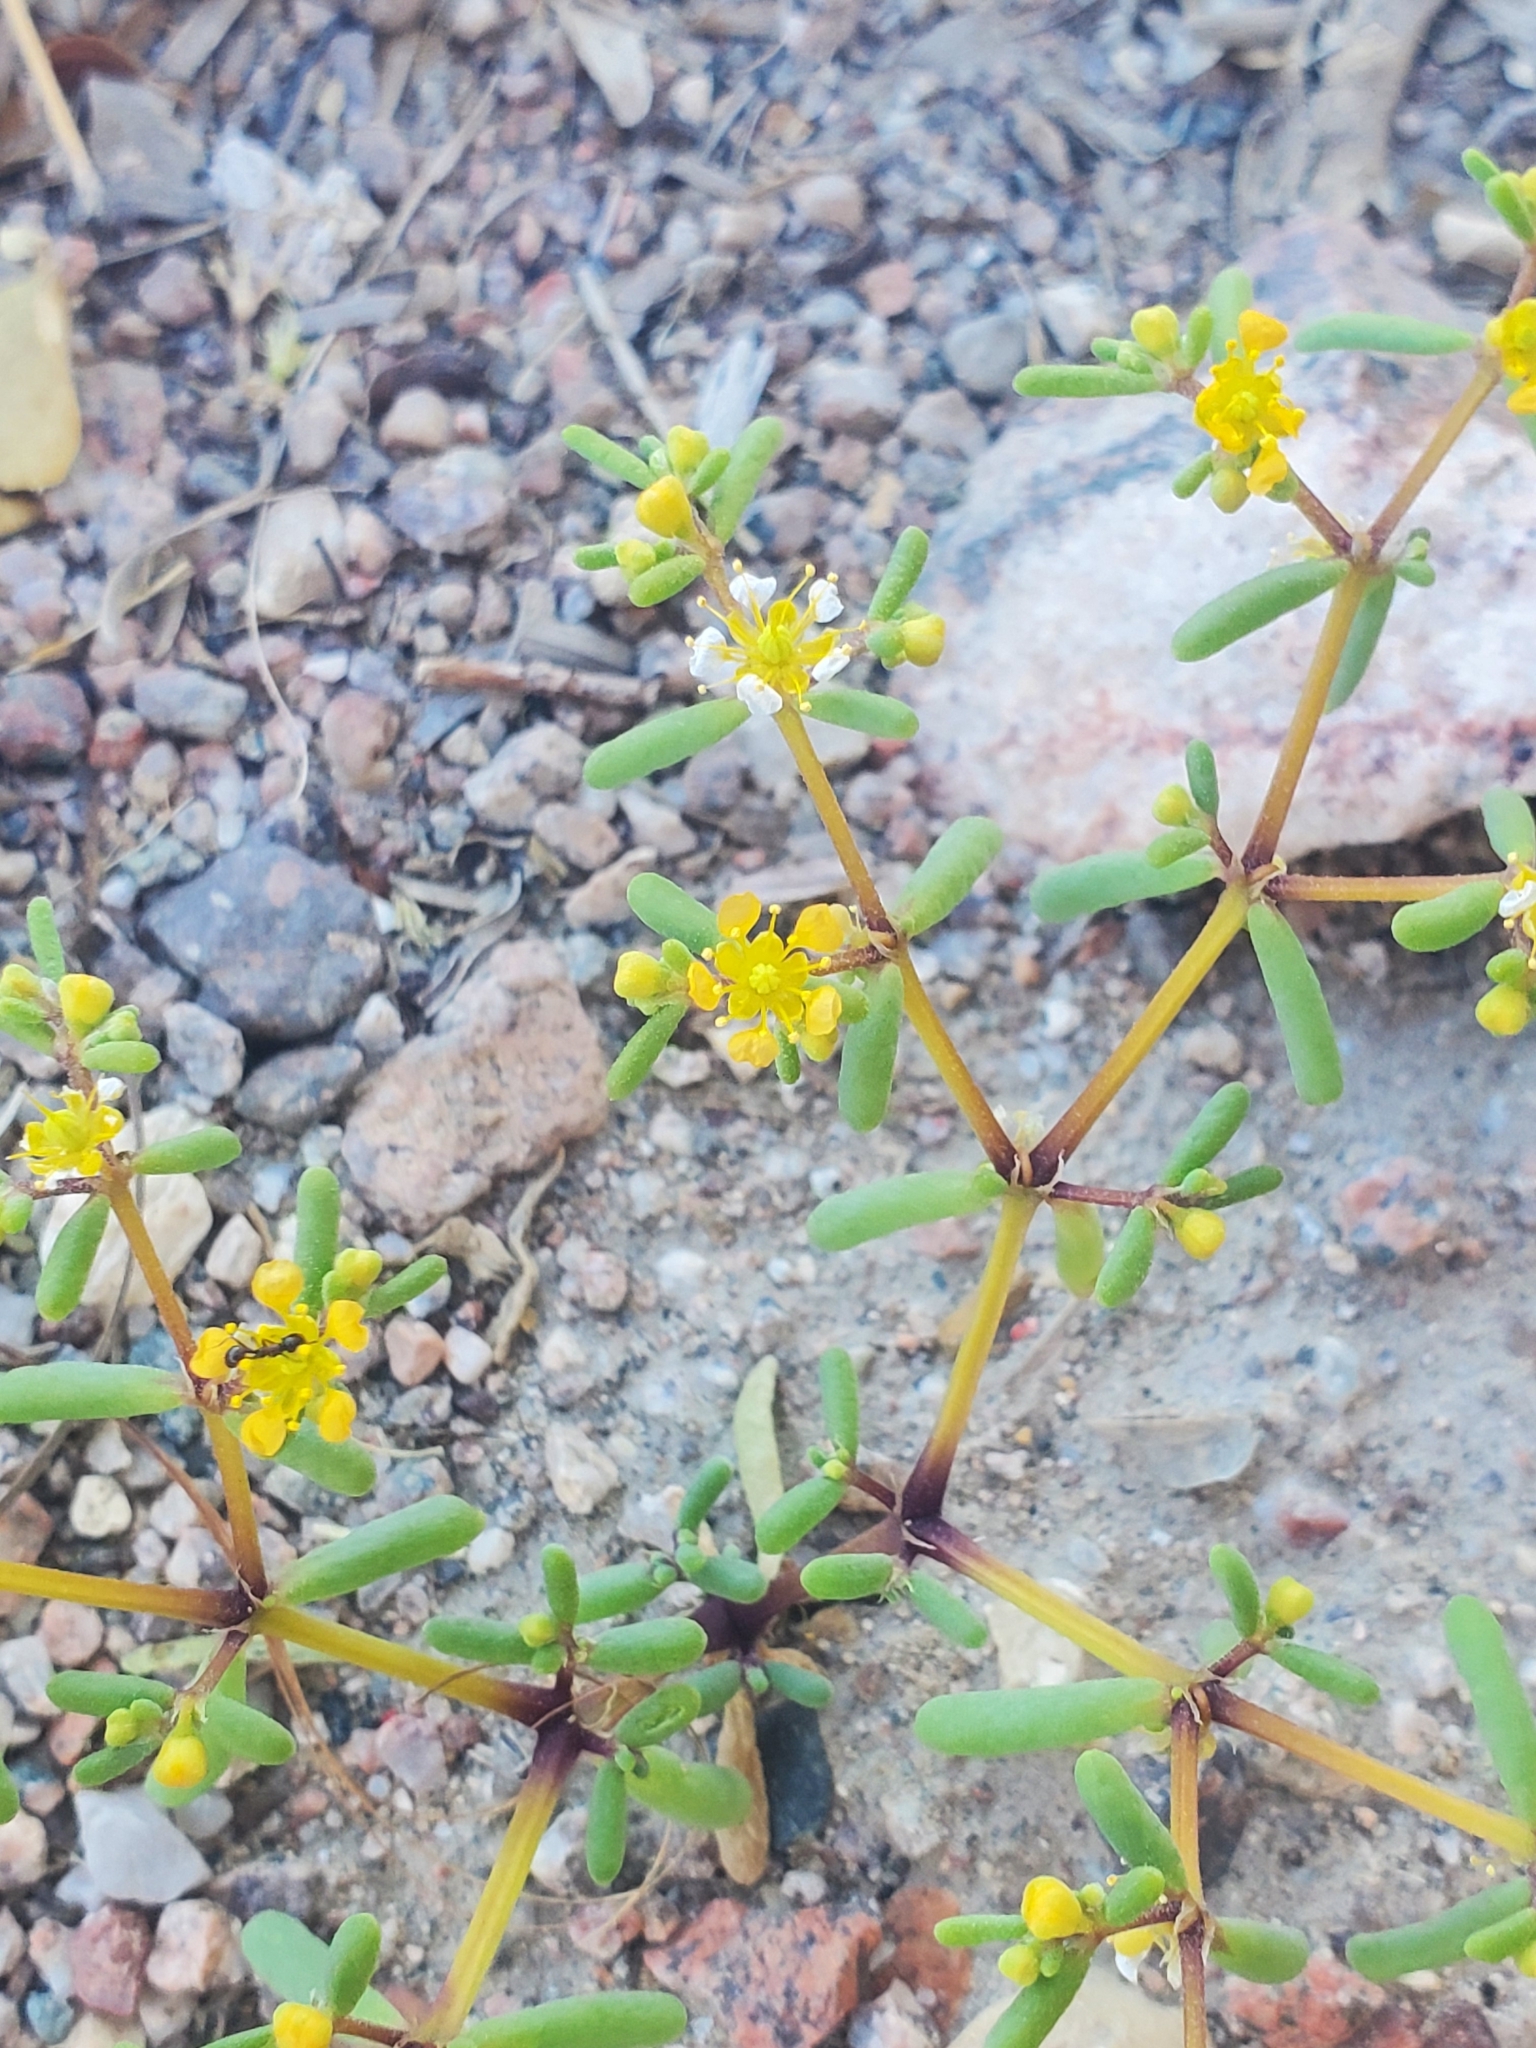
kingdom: Plantae
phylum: Tracheophyta
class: Magnoliopsida
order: Zygophyllales
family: Zygophyllaceae
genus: Tetraena
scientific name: Tetraena simplex
